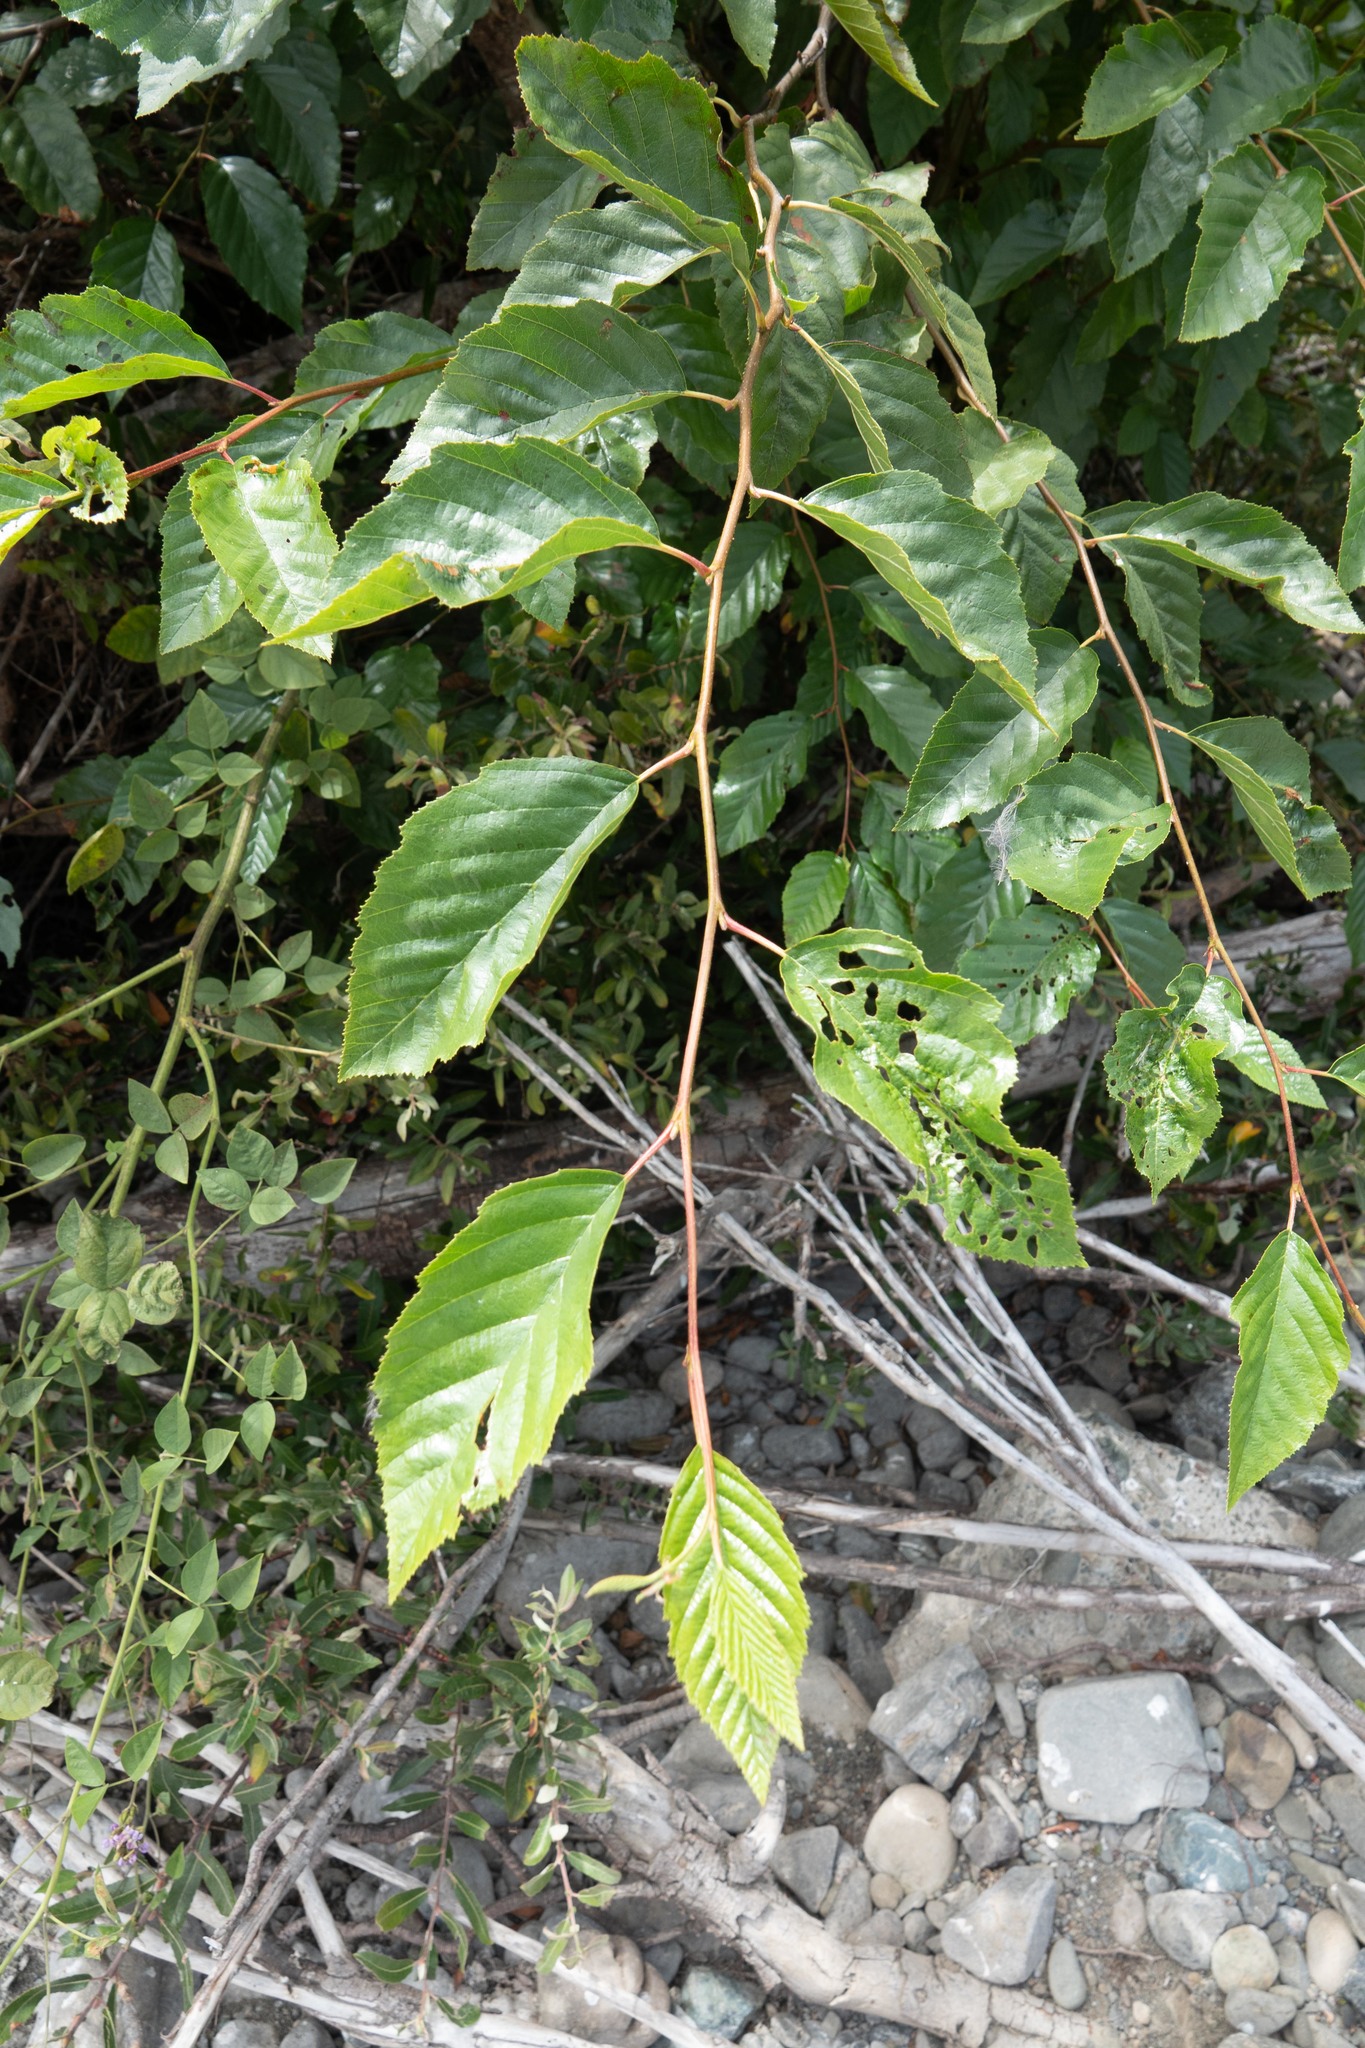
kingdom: Plantae
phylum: Tracheophyta
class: Magnoliopsida
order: Fagales
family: Betulaceae
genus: Alnus
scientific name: Alnus rhombifolia
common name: California alder
